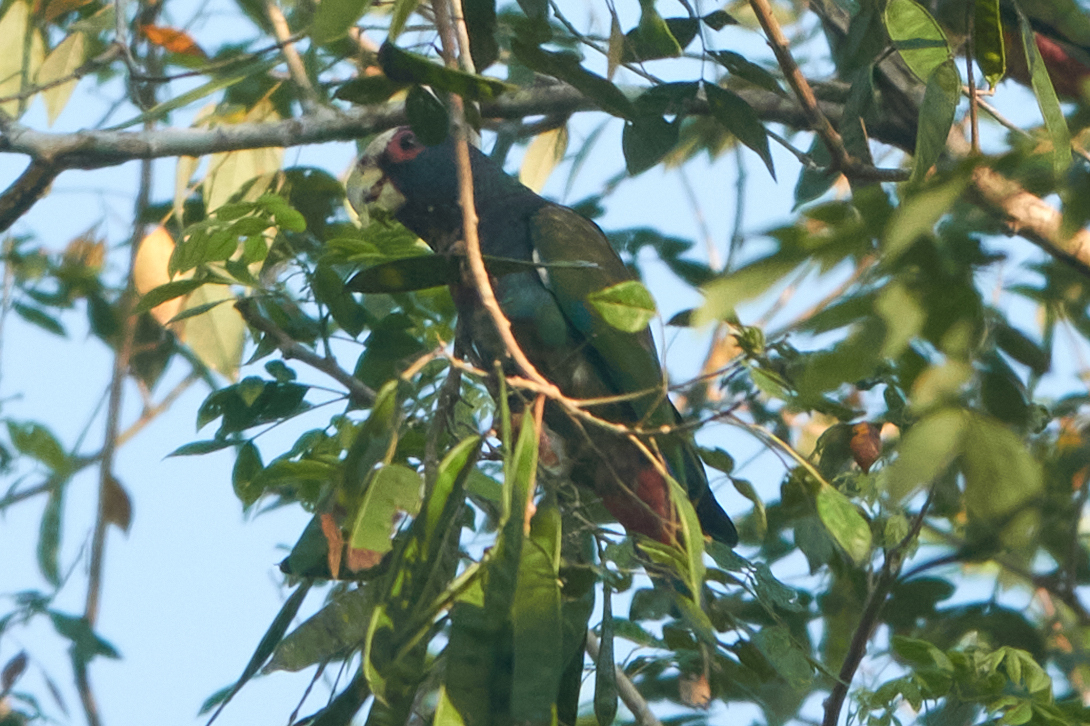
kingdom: Animalia
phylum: Chordata
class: Aves
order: Psittaciformes
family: Psittacidae
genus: Pionus
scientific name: Pionus senilis
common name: White-crowned parrot
